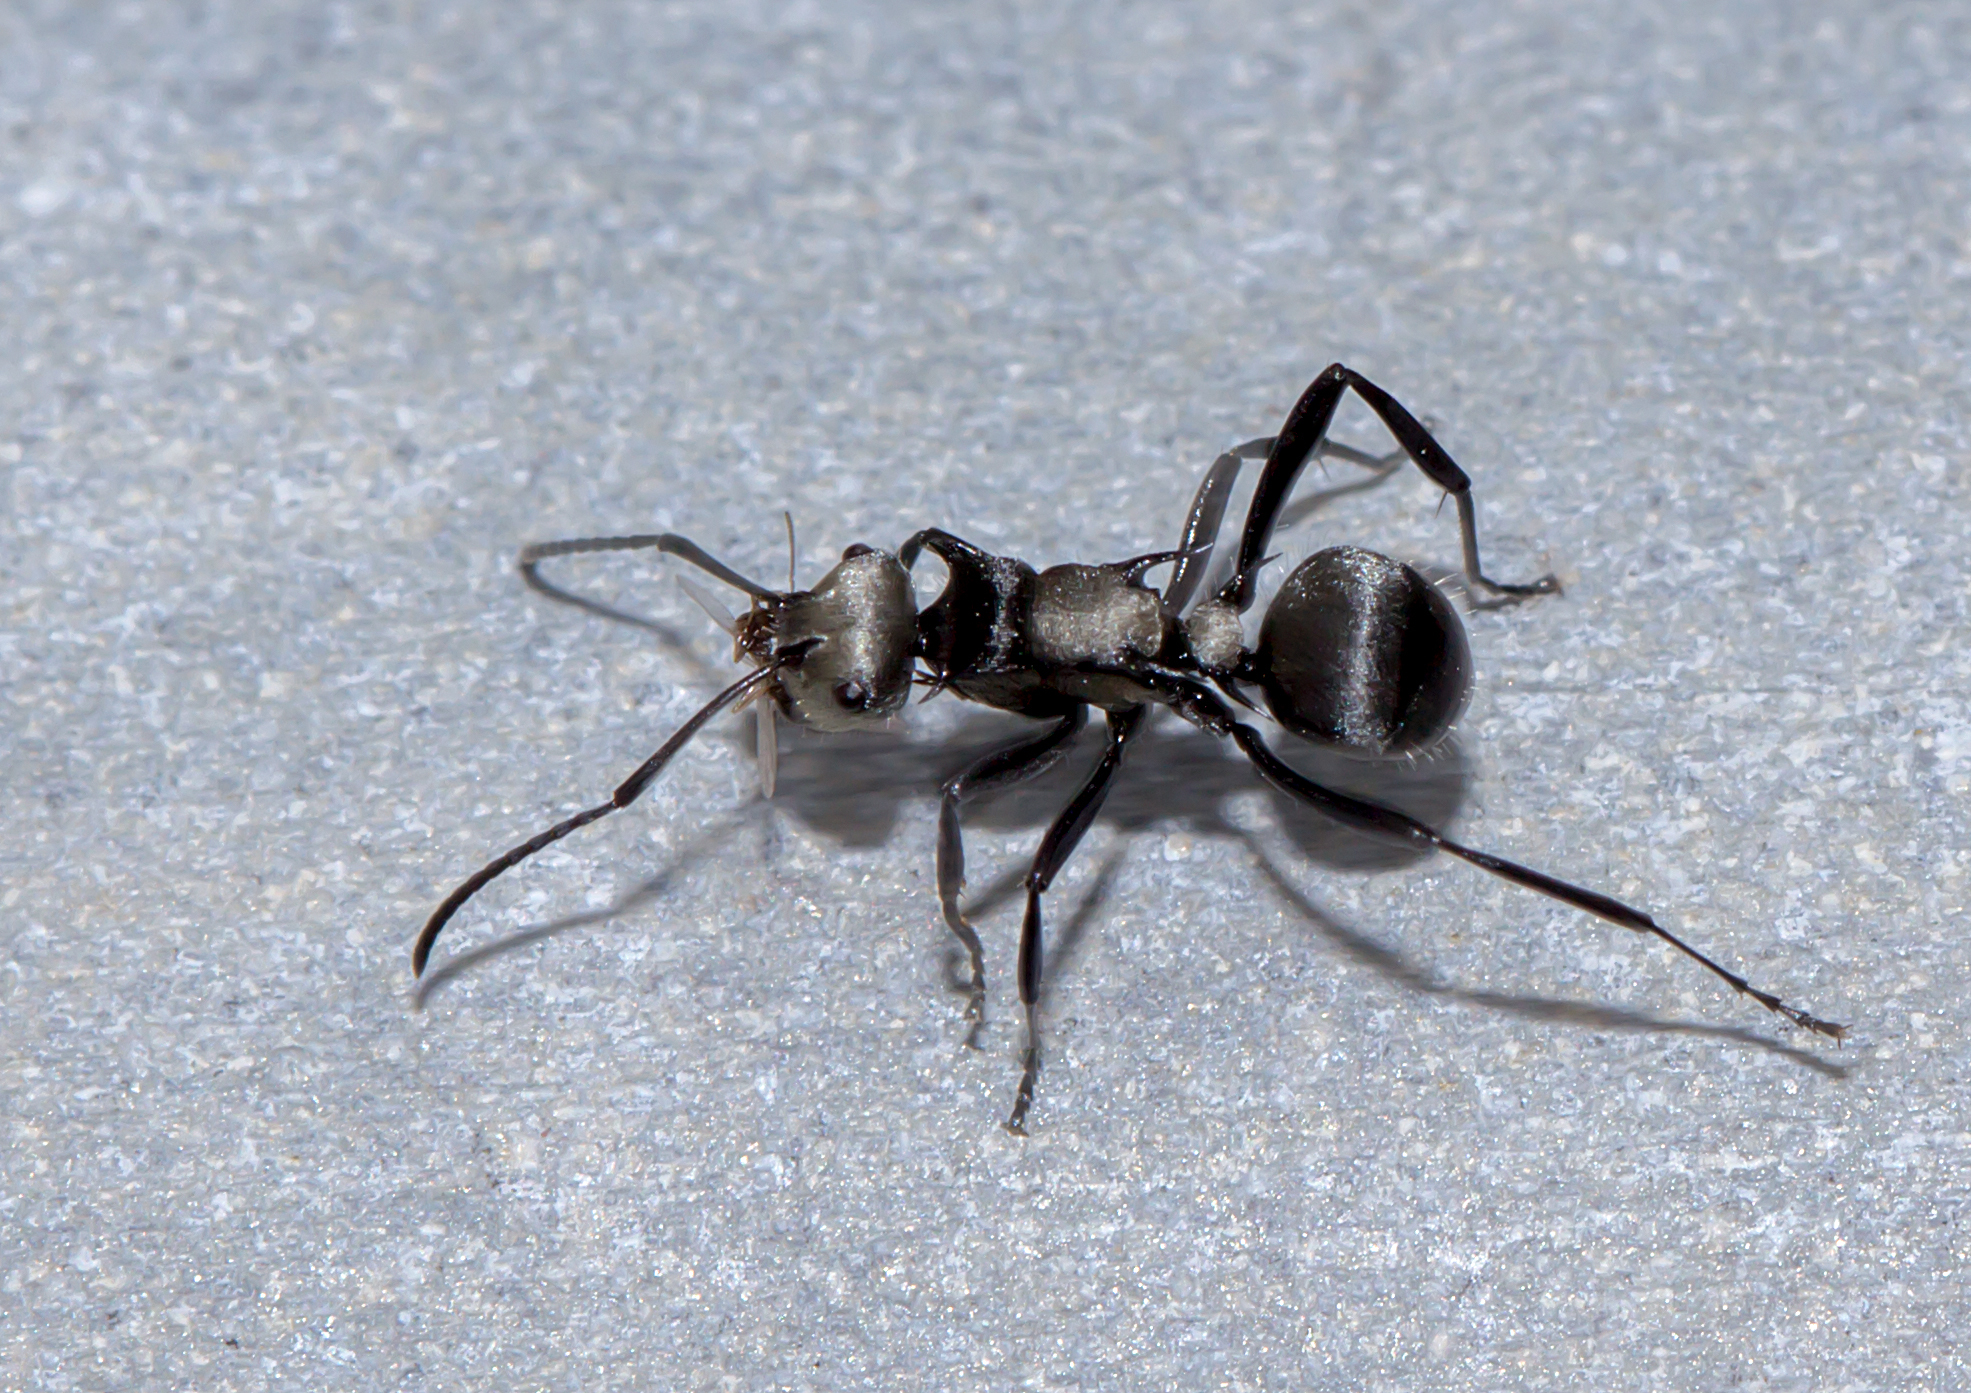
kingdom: Animalia
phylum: Arthropoda
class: Insecta
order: Hymenoptera
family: Formicidae
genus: Polyrhachis
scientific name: Polyrhachis daemeli
